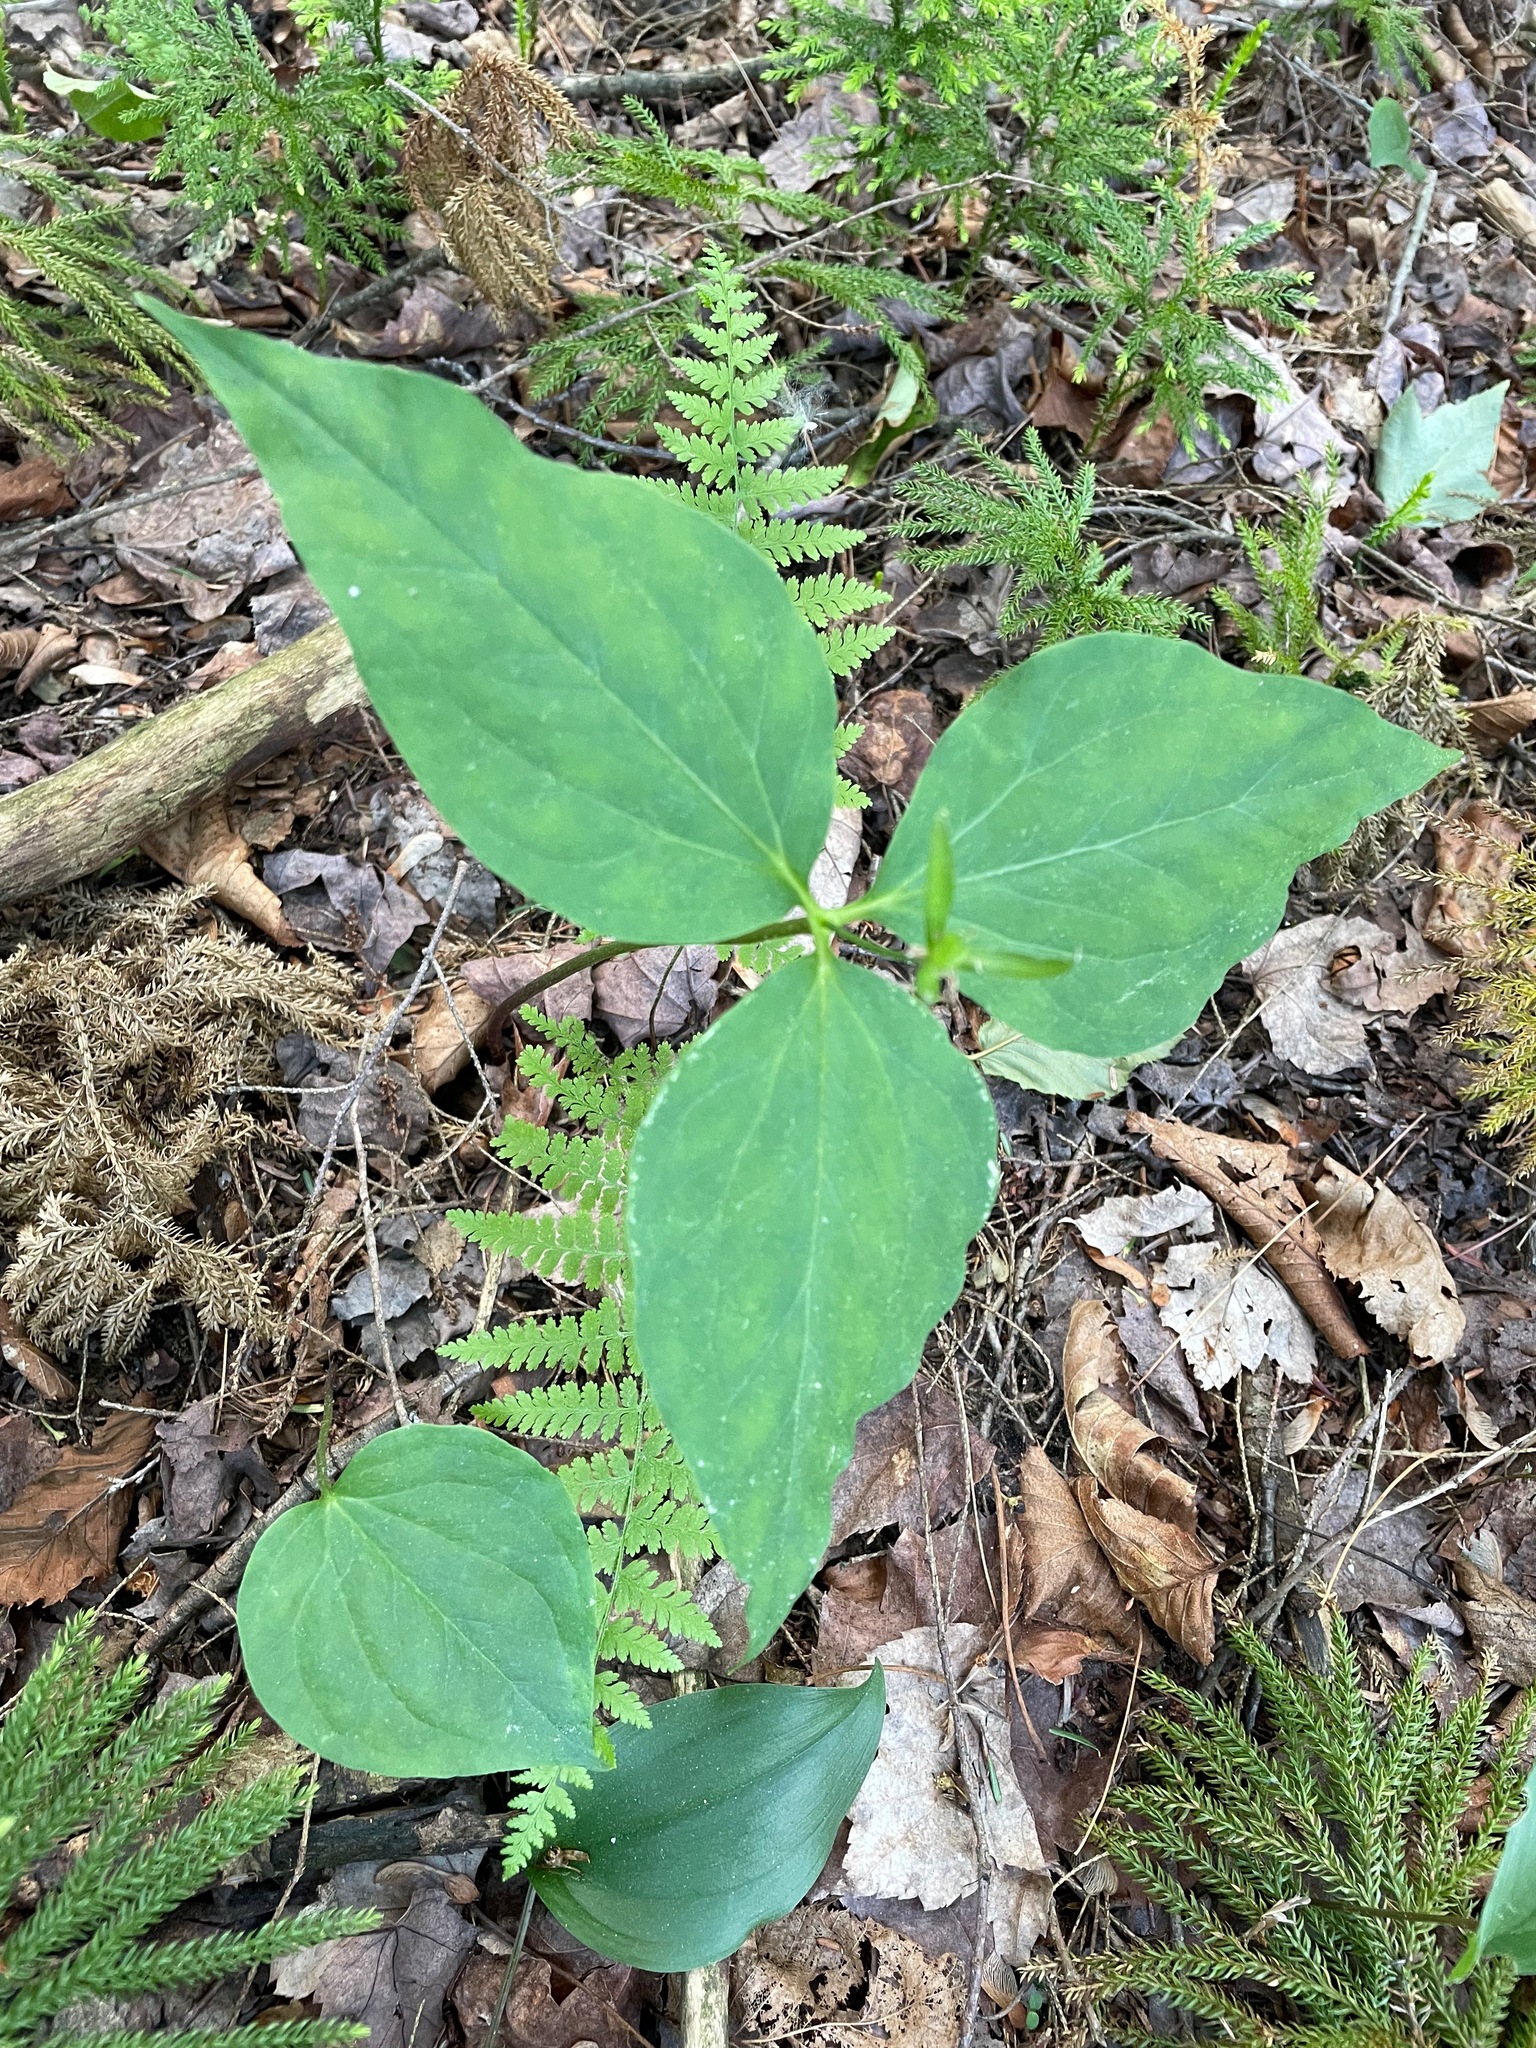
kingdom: Plantae
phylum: Tracheophyta
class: Liliopsida
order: Liliales
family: Melanthiaceae
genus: Trillium
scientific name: Trillium undulatum
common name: Paint trillium
